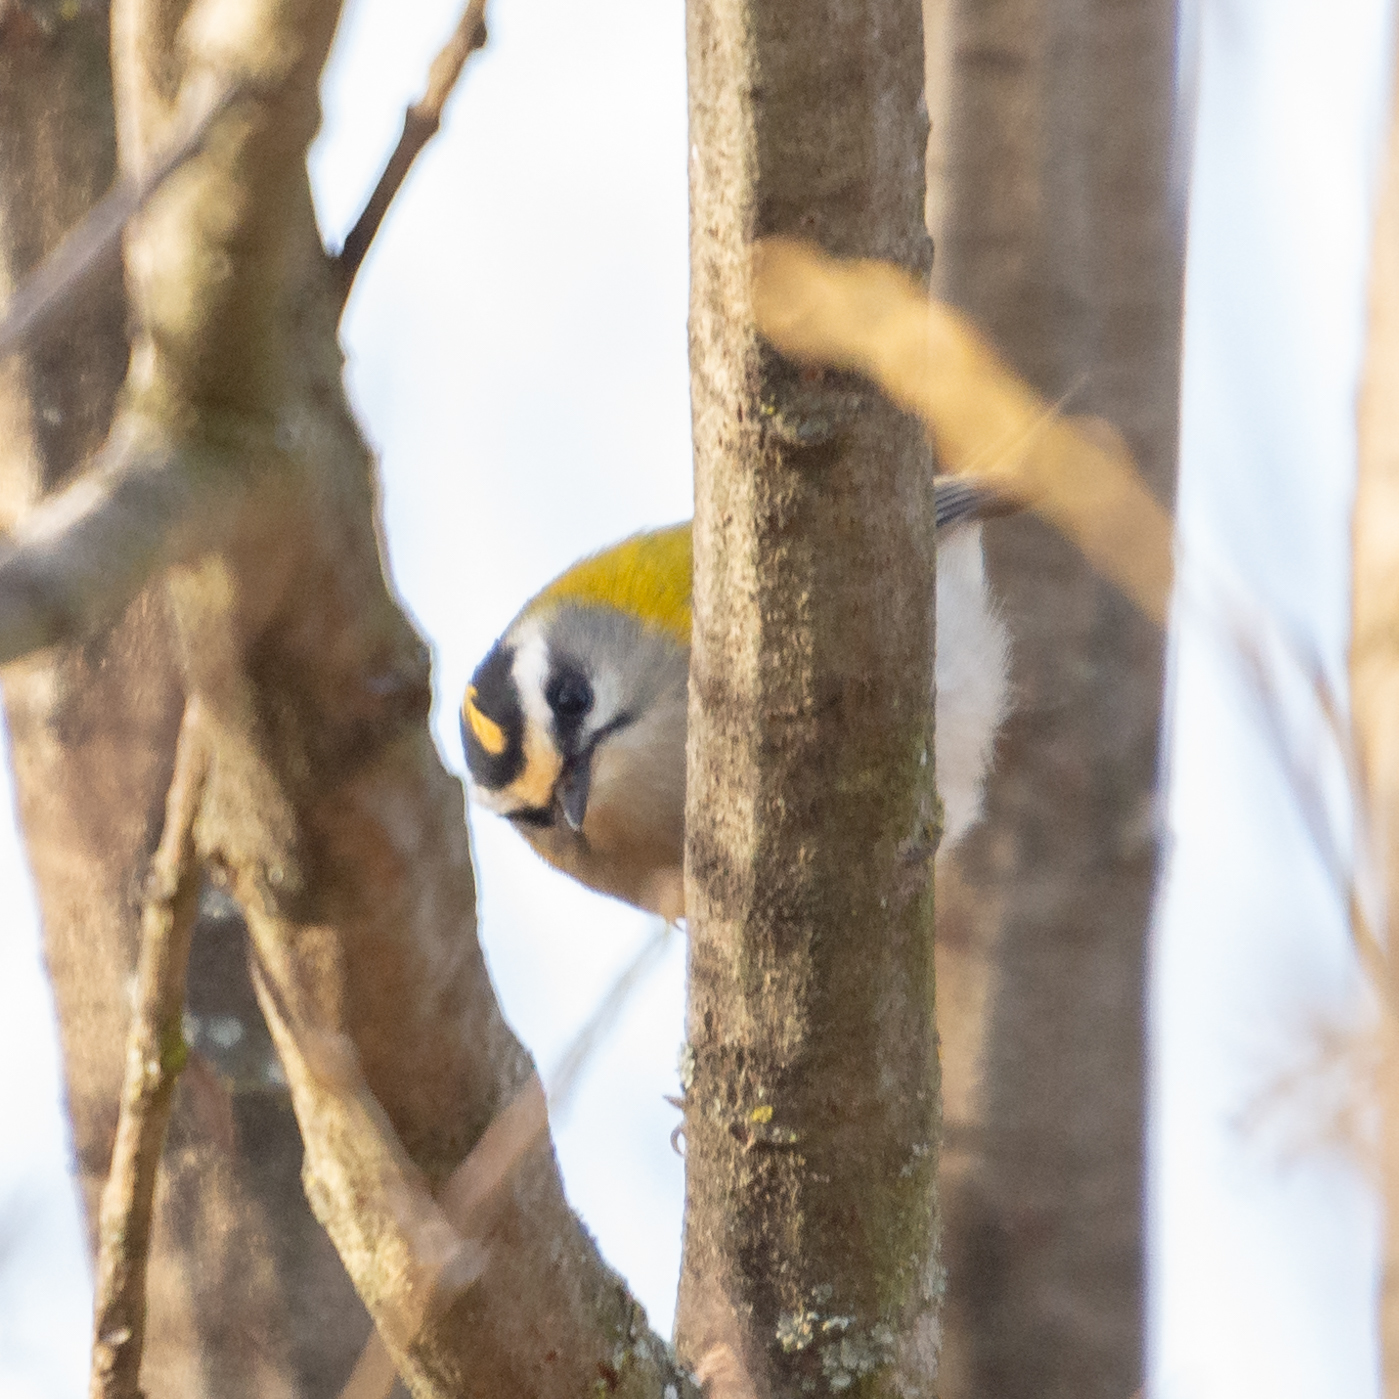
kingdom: Animalia
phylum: Chordata
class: Aves
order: Passeriformes
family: Regulidae
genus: Regulus
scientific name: Regulus ignicapilla
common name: Firecrest
